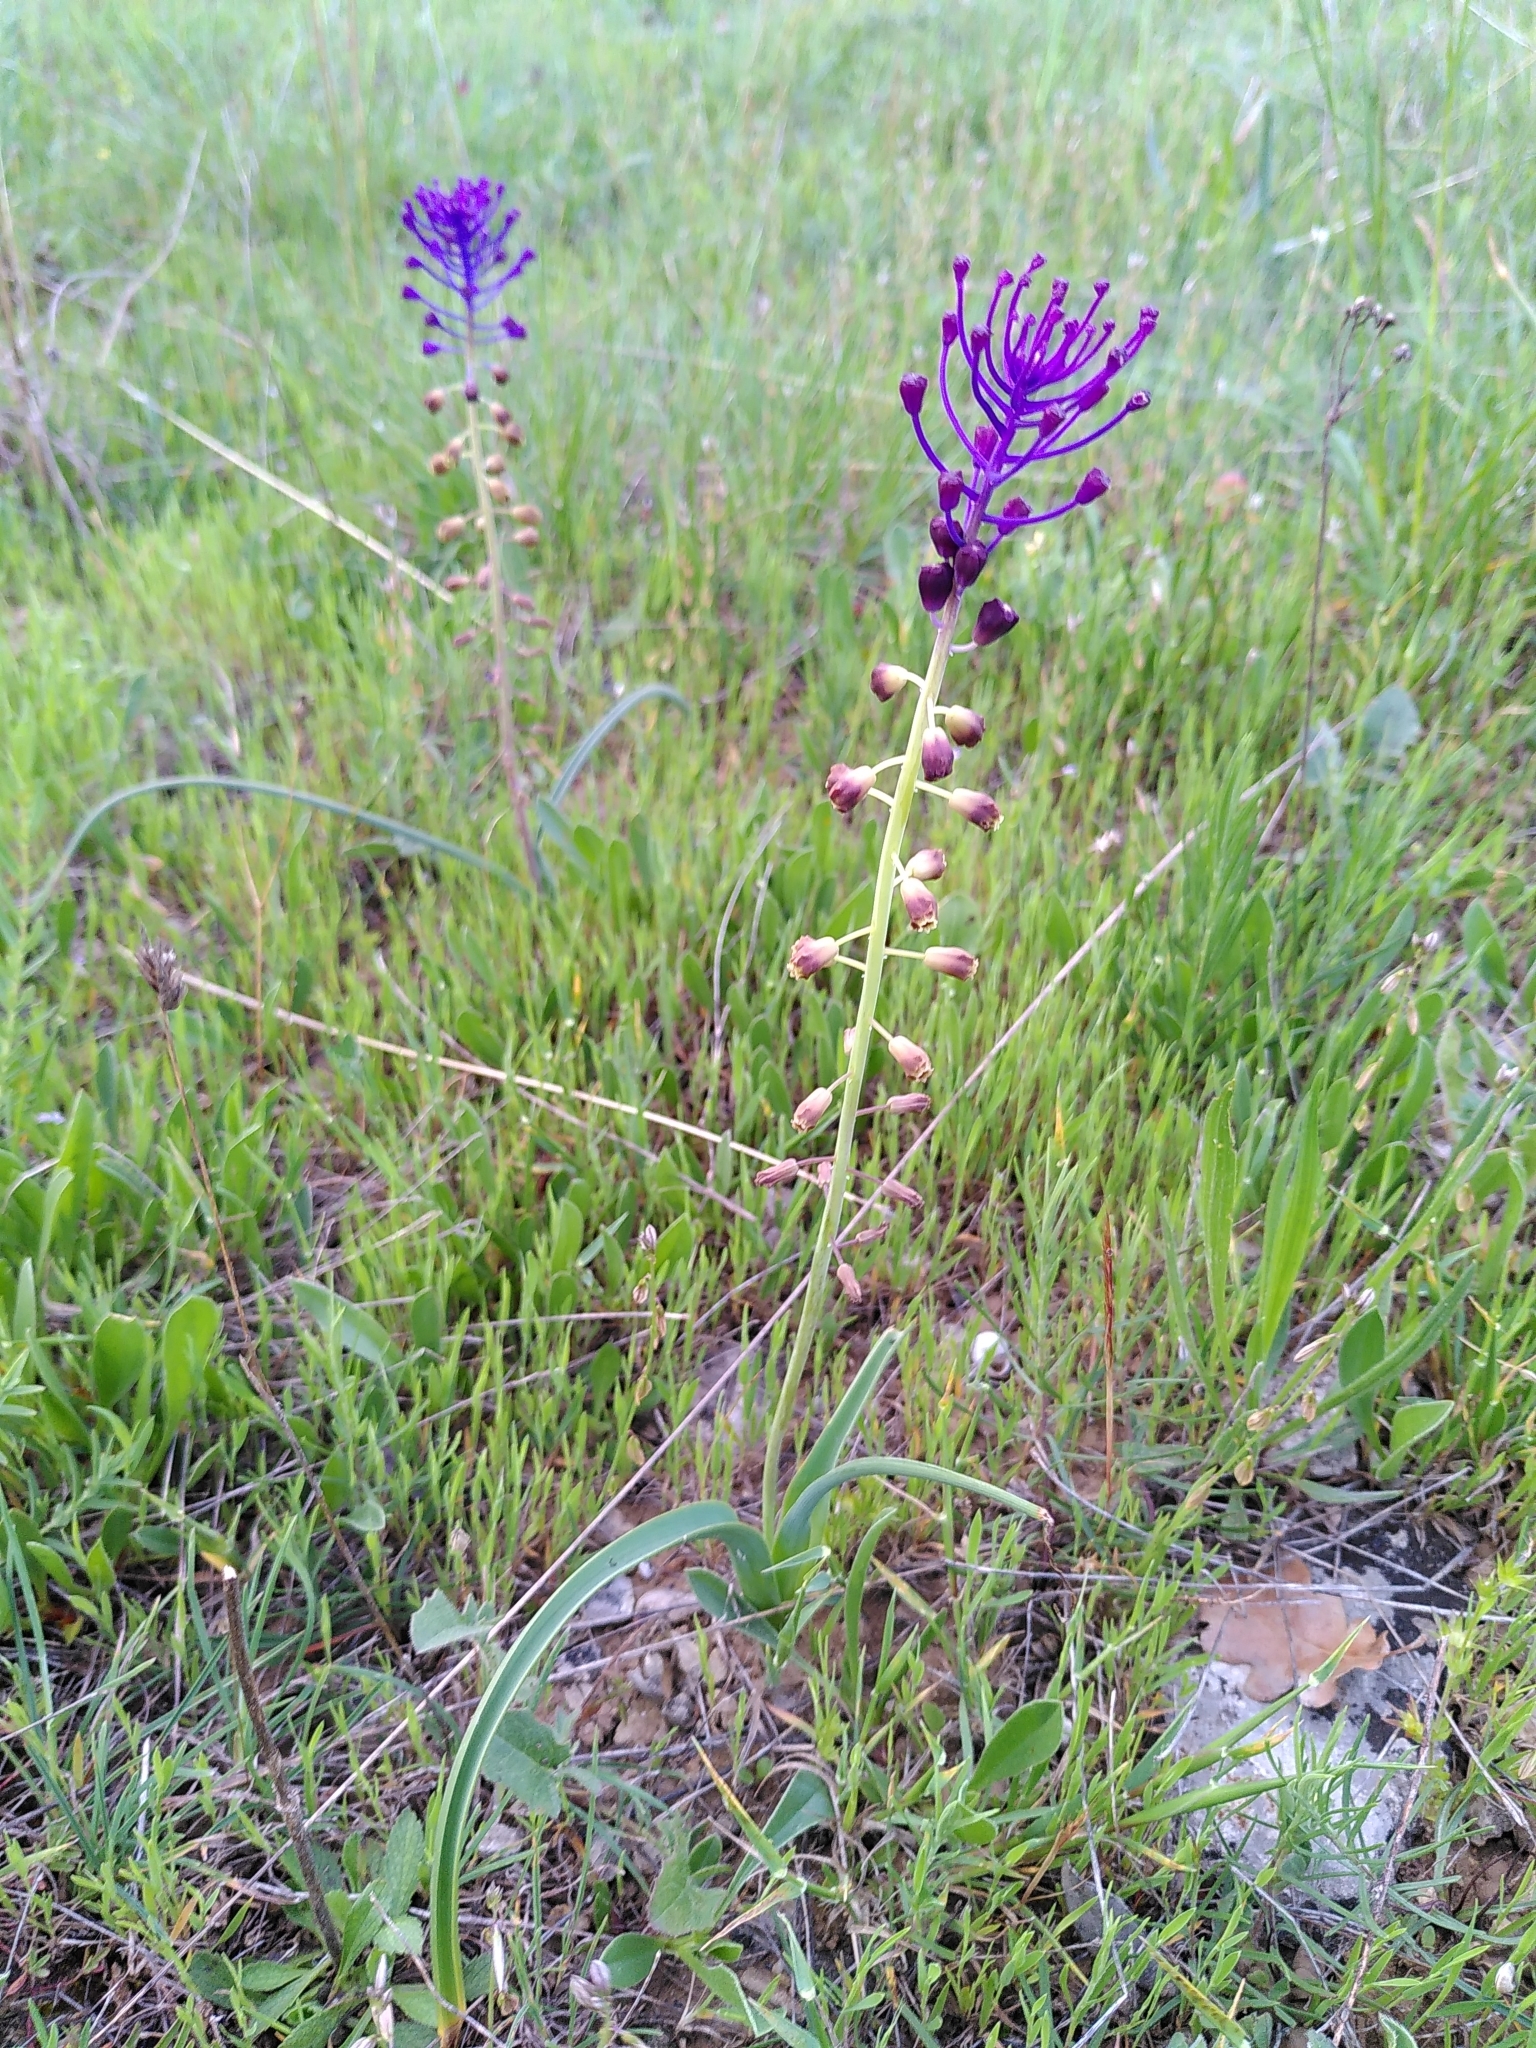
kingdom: Plantae
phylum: Tracheophyta
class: Liliopsida
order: Asparagales
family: Asparagaceae
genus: Muscari
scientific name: Muscari comosum
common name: Tassel hyacinth
